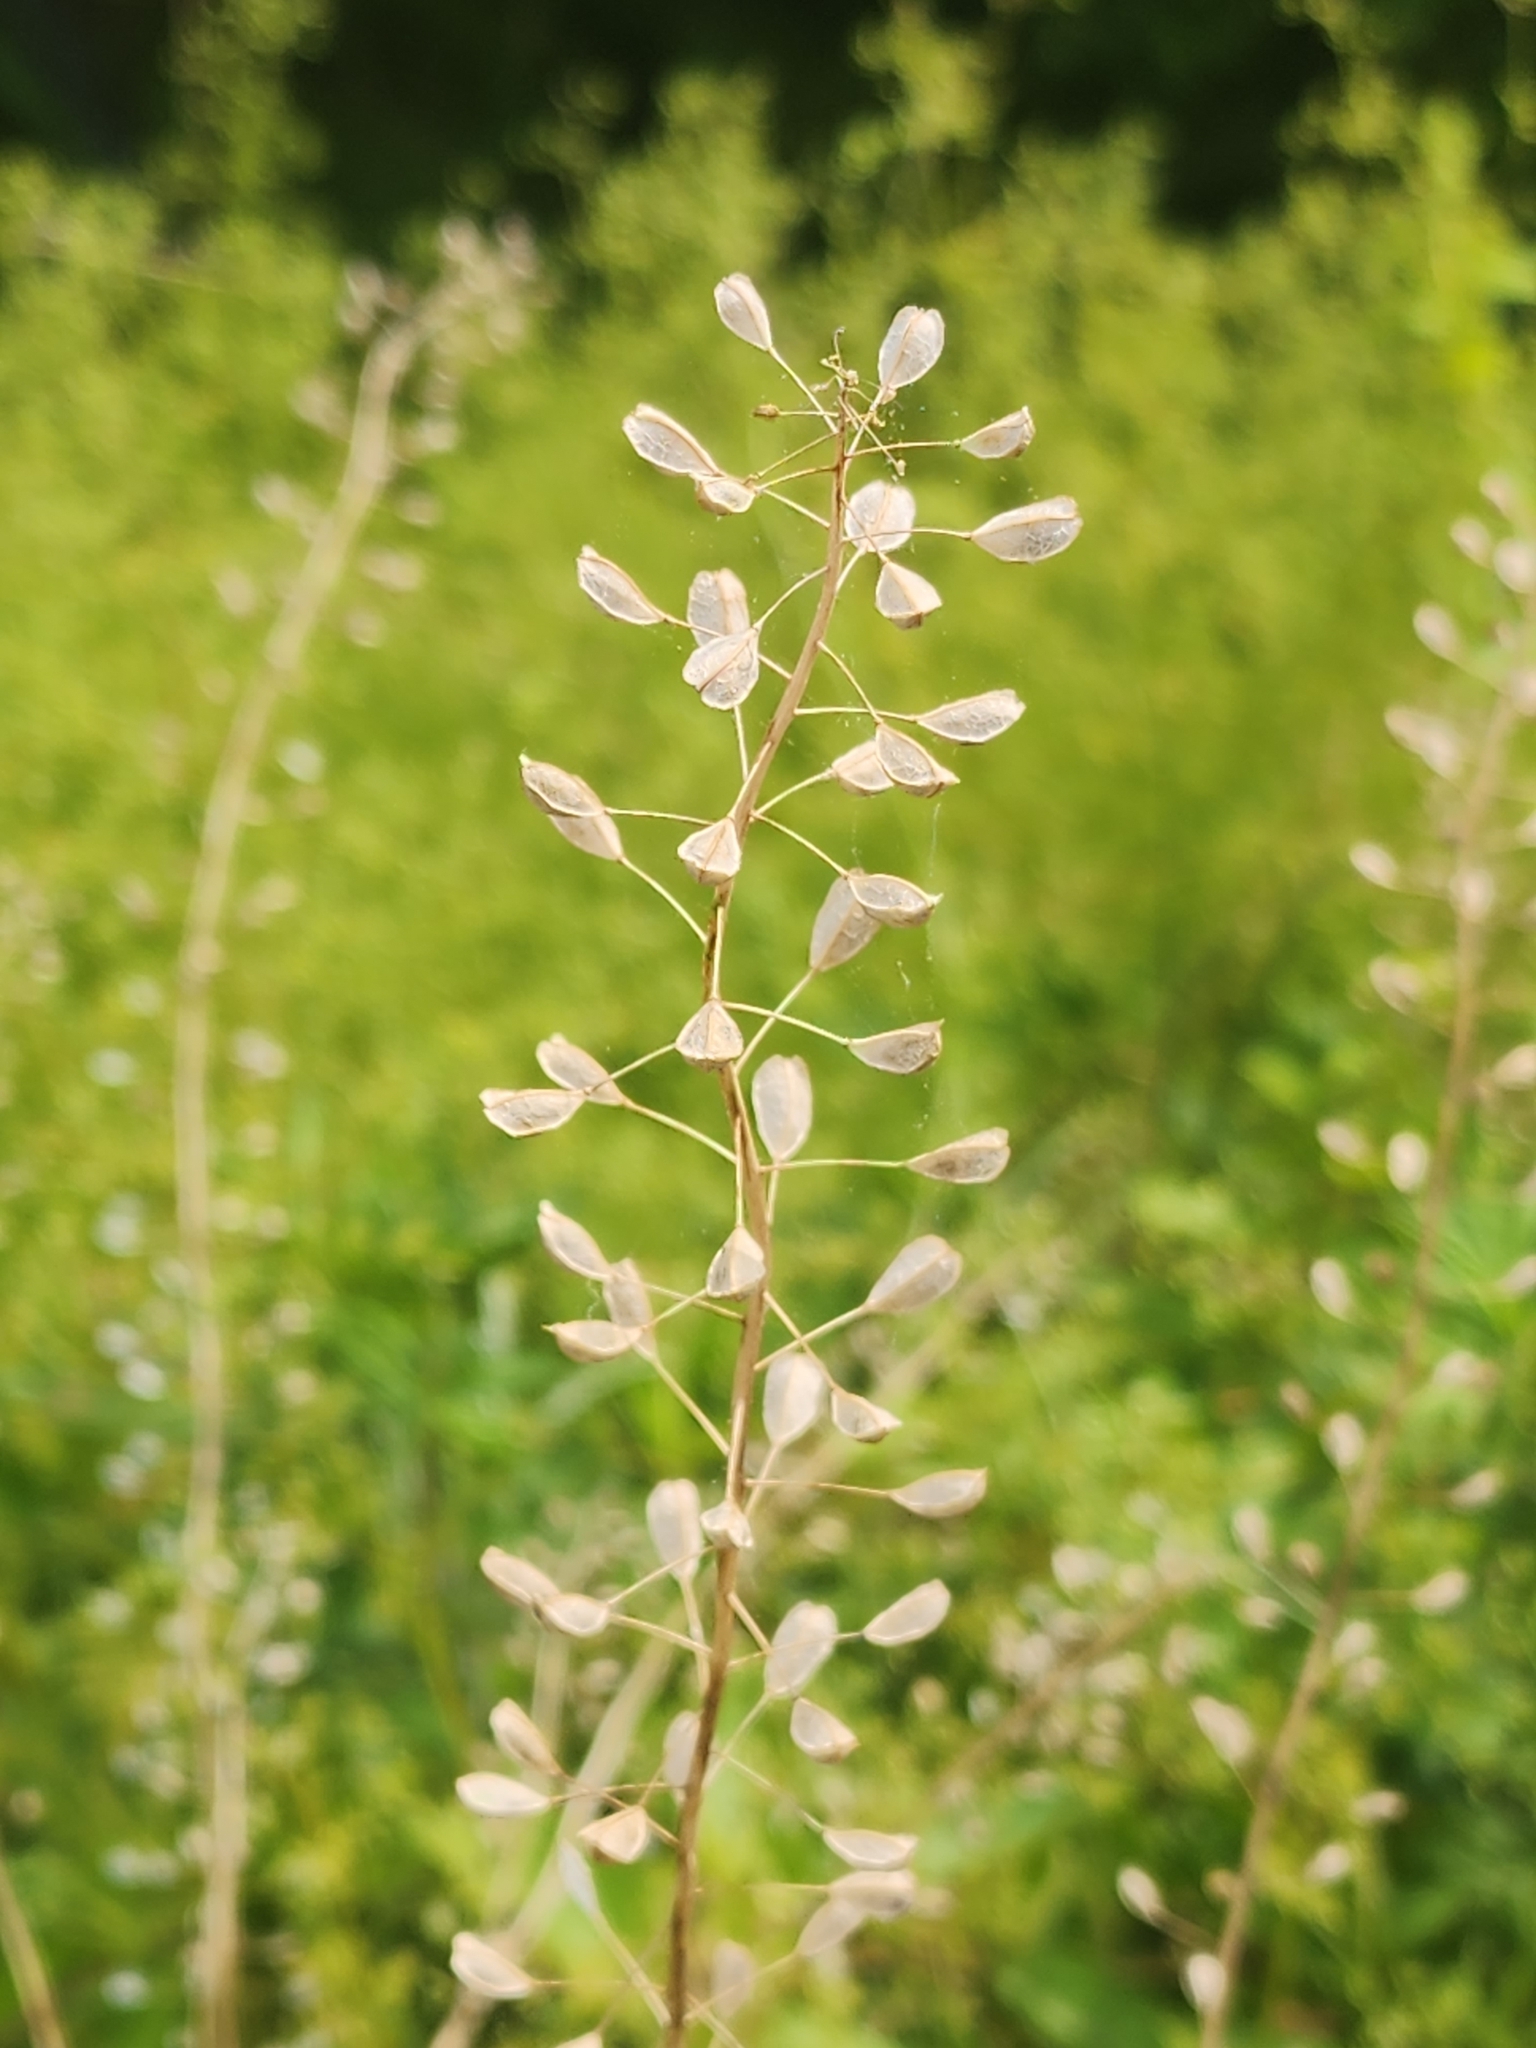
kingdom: Plantae
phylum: Tracheophyta
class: Magnoliopsida
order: Brassicales
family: Brassicaceae
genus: Mummenhoffia
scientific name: Mummenhoffia alliacea
